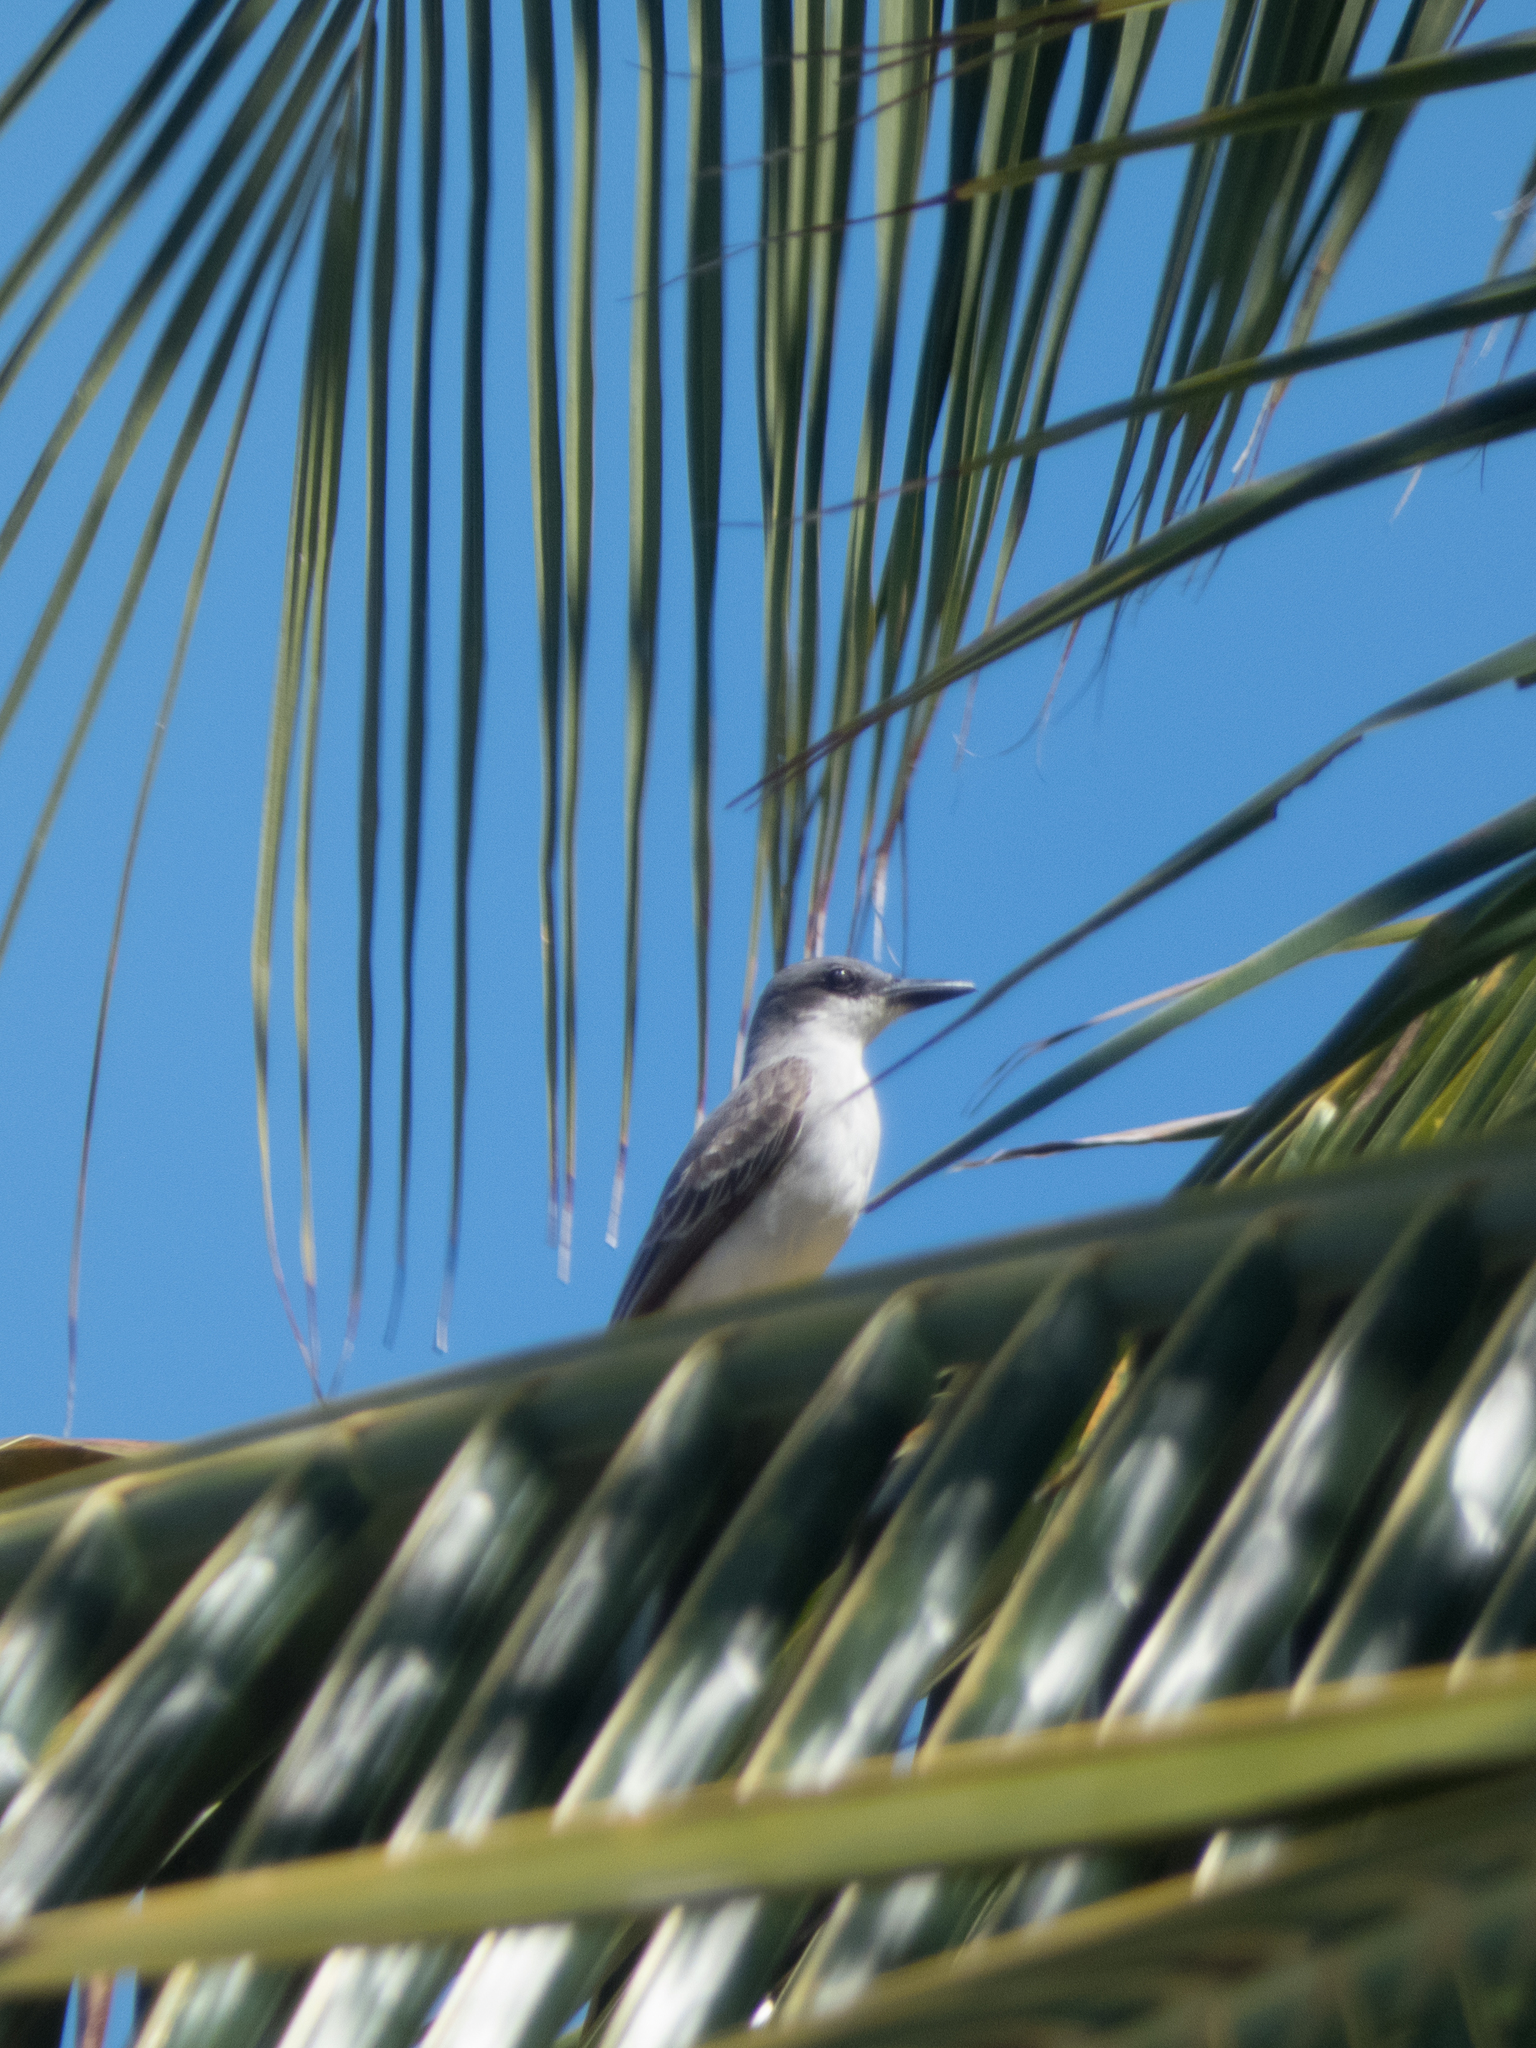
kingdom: Animalia
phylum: Chordata
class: Aves
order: Passeriformes
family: Tyrannidae
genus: Tyrannus
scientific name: Tyrannus dominicensis
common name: Gray kingbird
